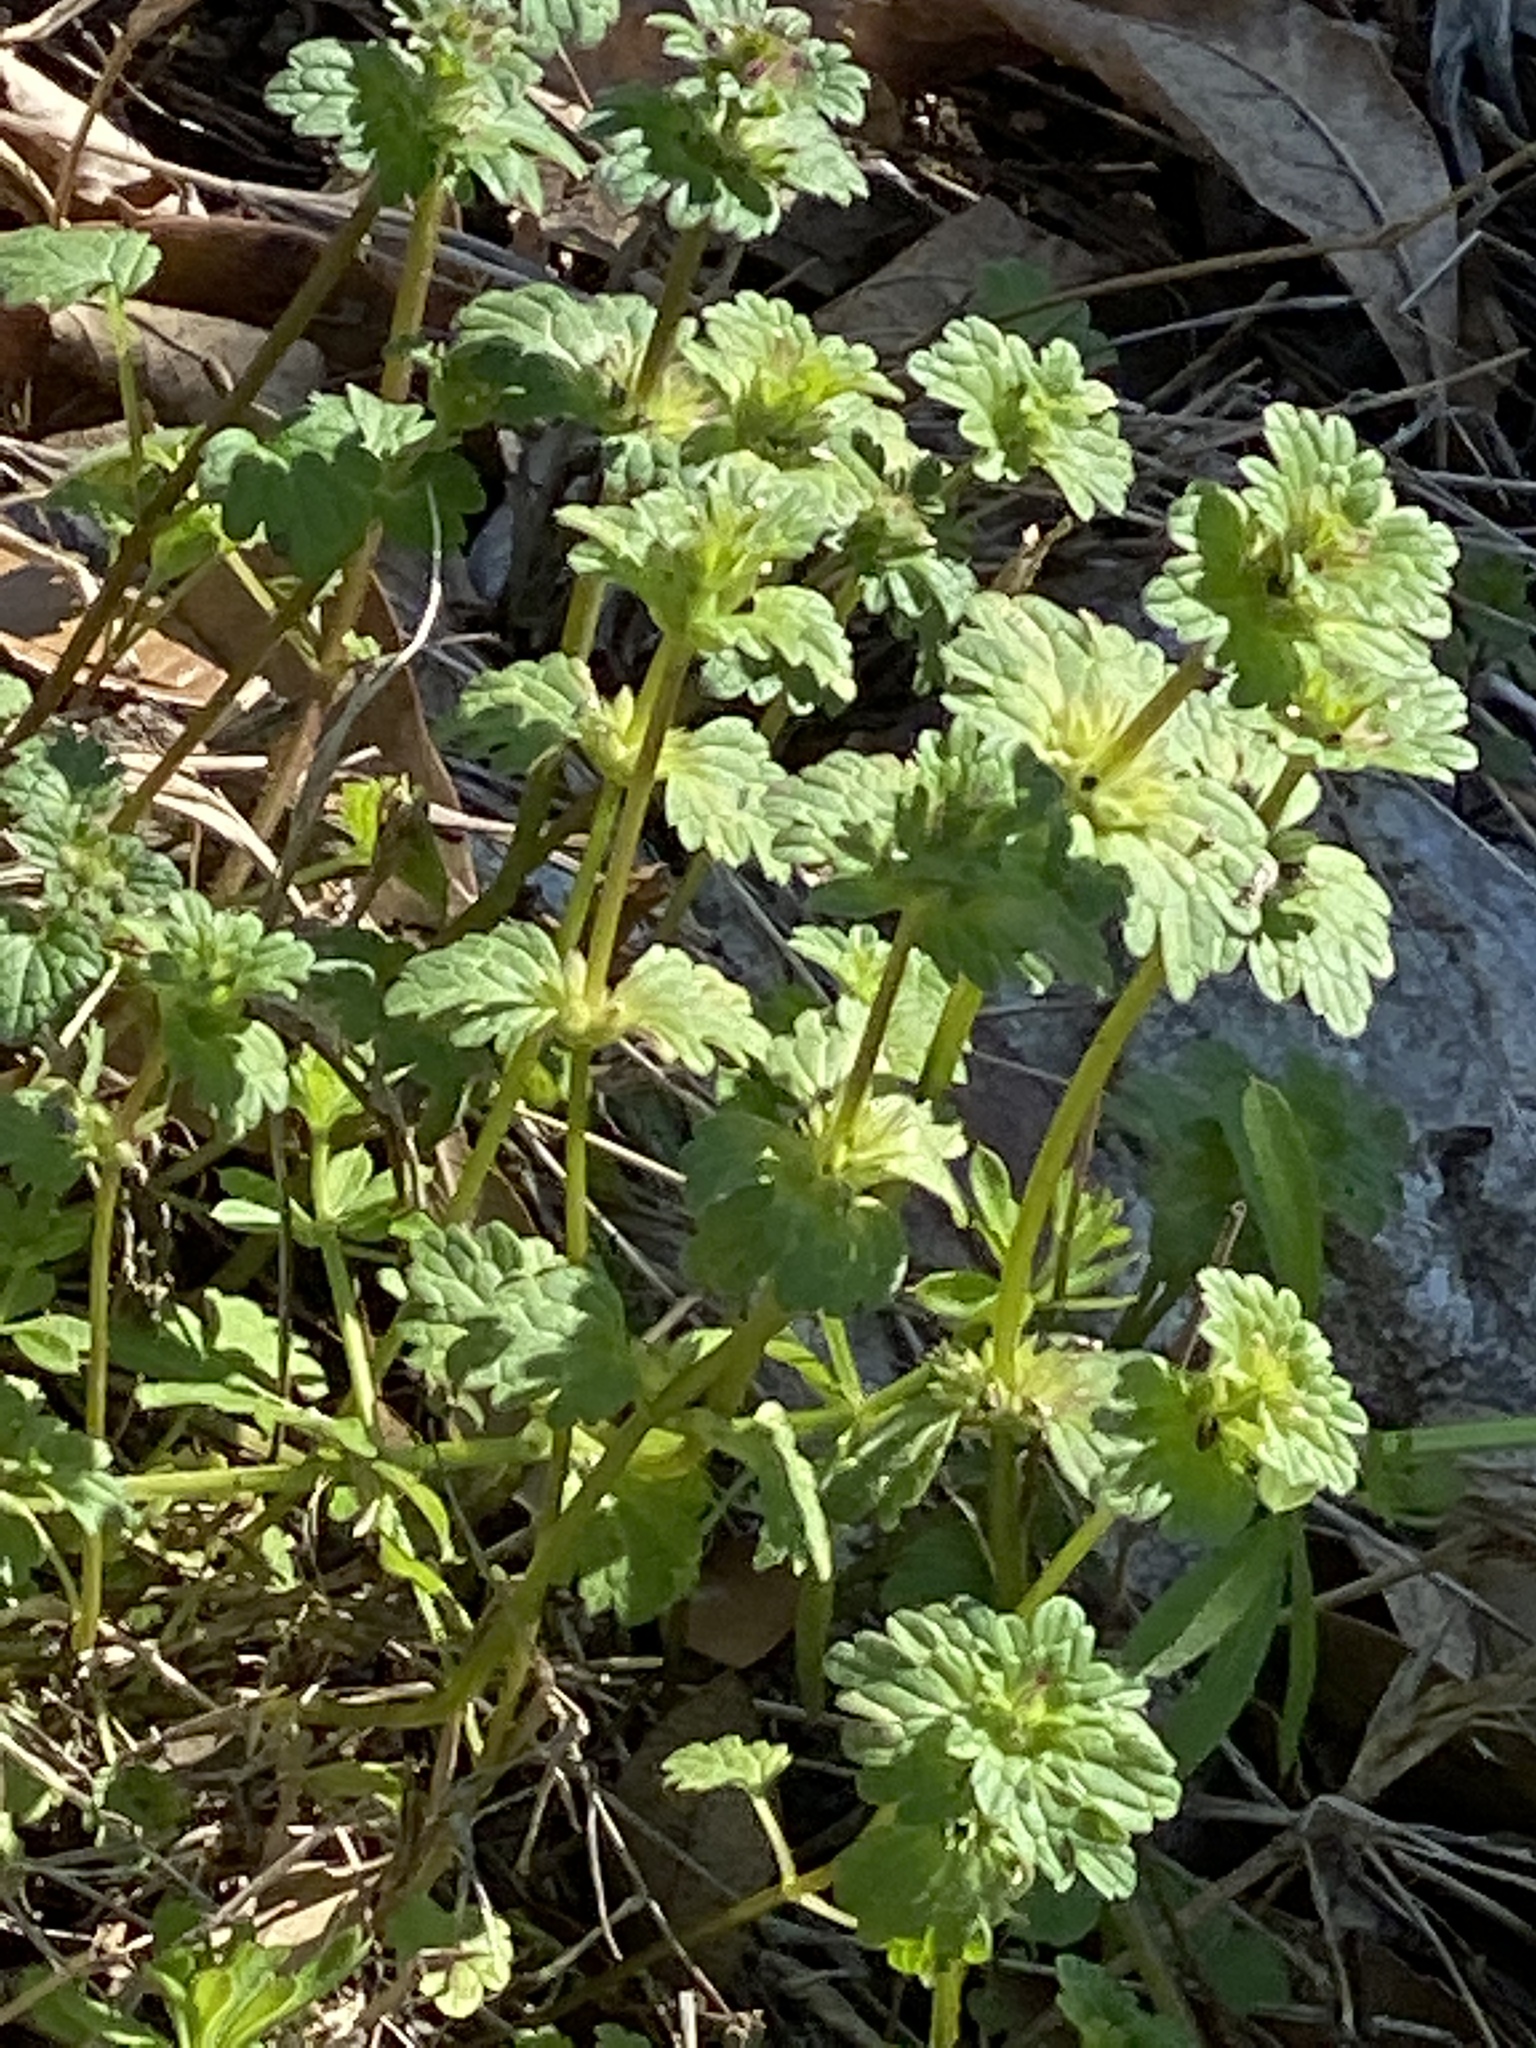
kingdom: Plantae
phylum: Tracheophyta
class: Magnoliopsida
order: Lamiales
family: Lamiaceae
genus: Lamium
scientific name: Lamium amplexicaule
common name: Henbit dead-nettle
